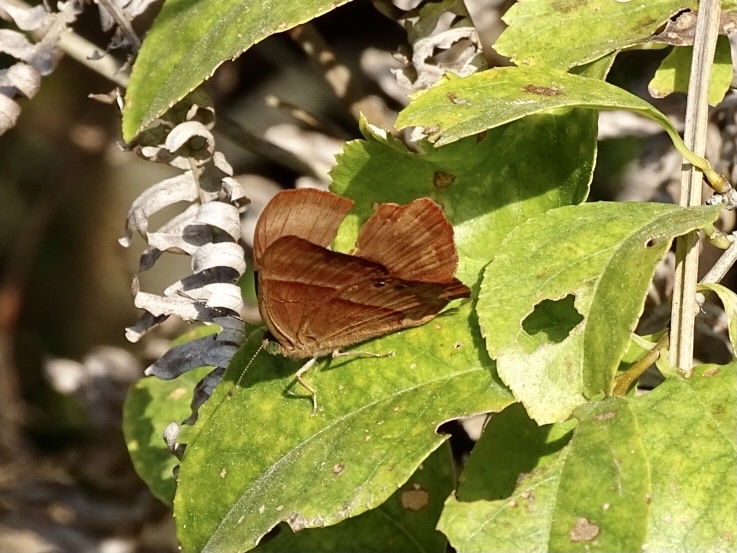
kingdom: Animalia
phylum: Arthropoda
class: Insecta
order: Lepidoptera
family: Lycaenidae
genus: Abisara
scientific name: Abisara echeria
